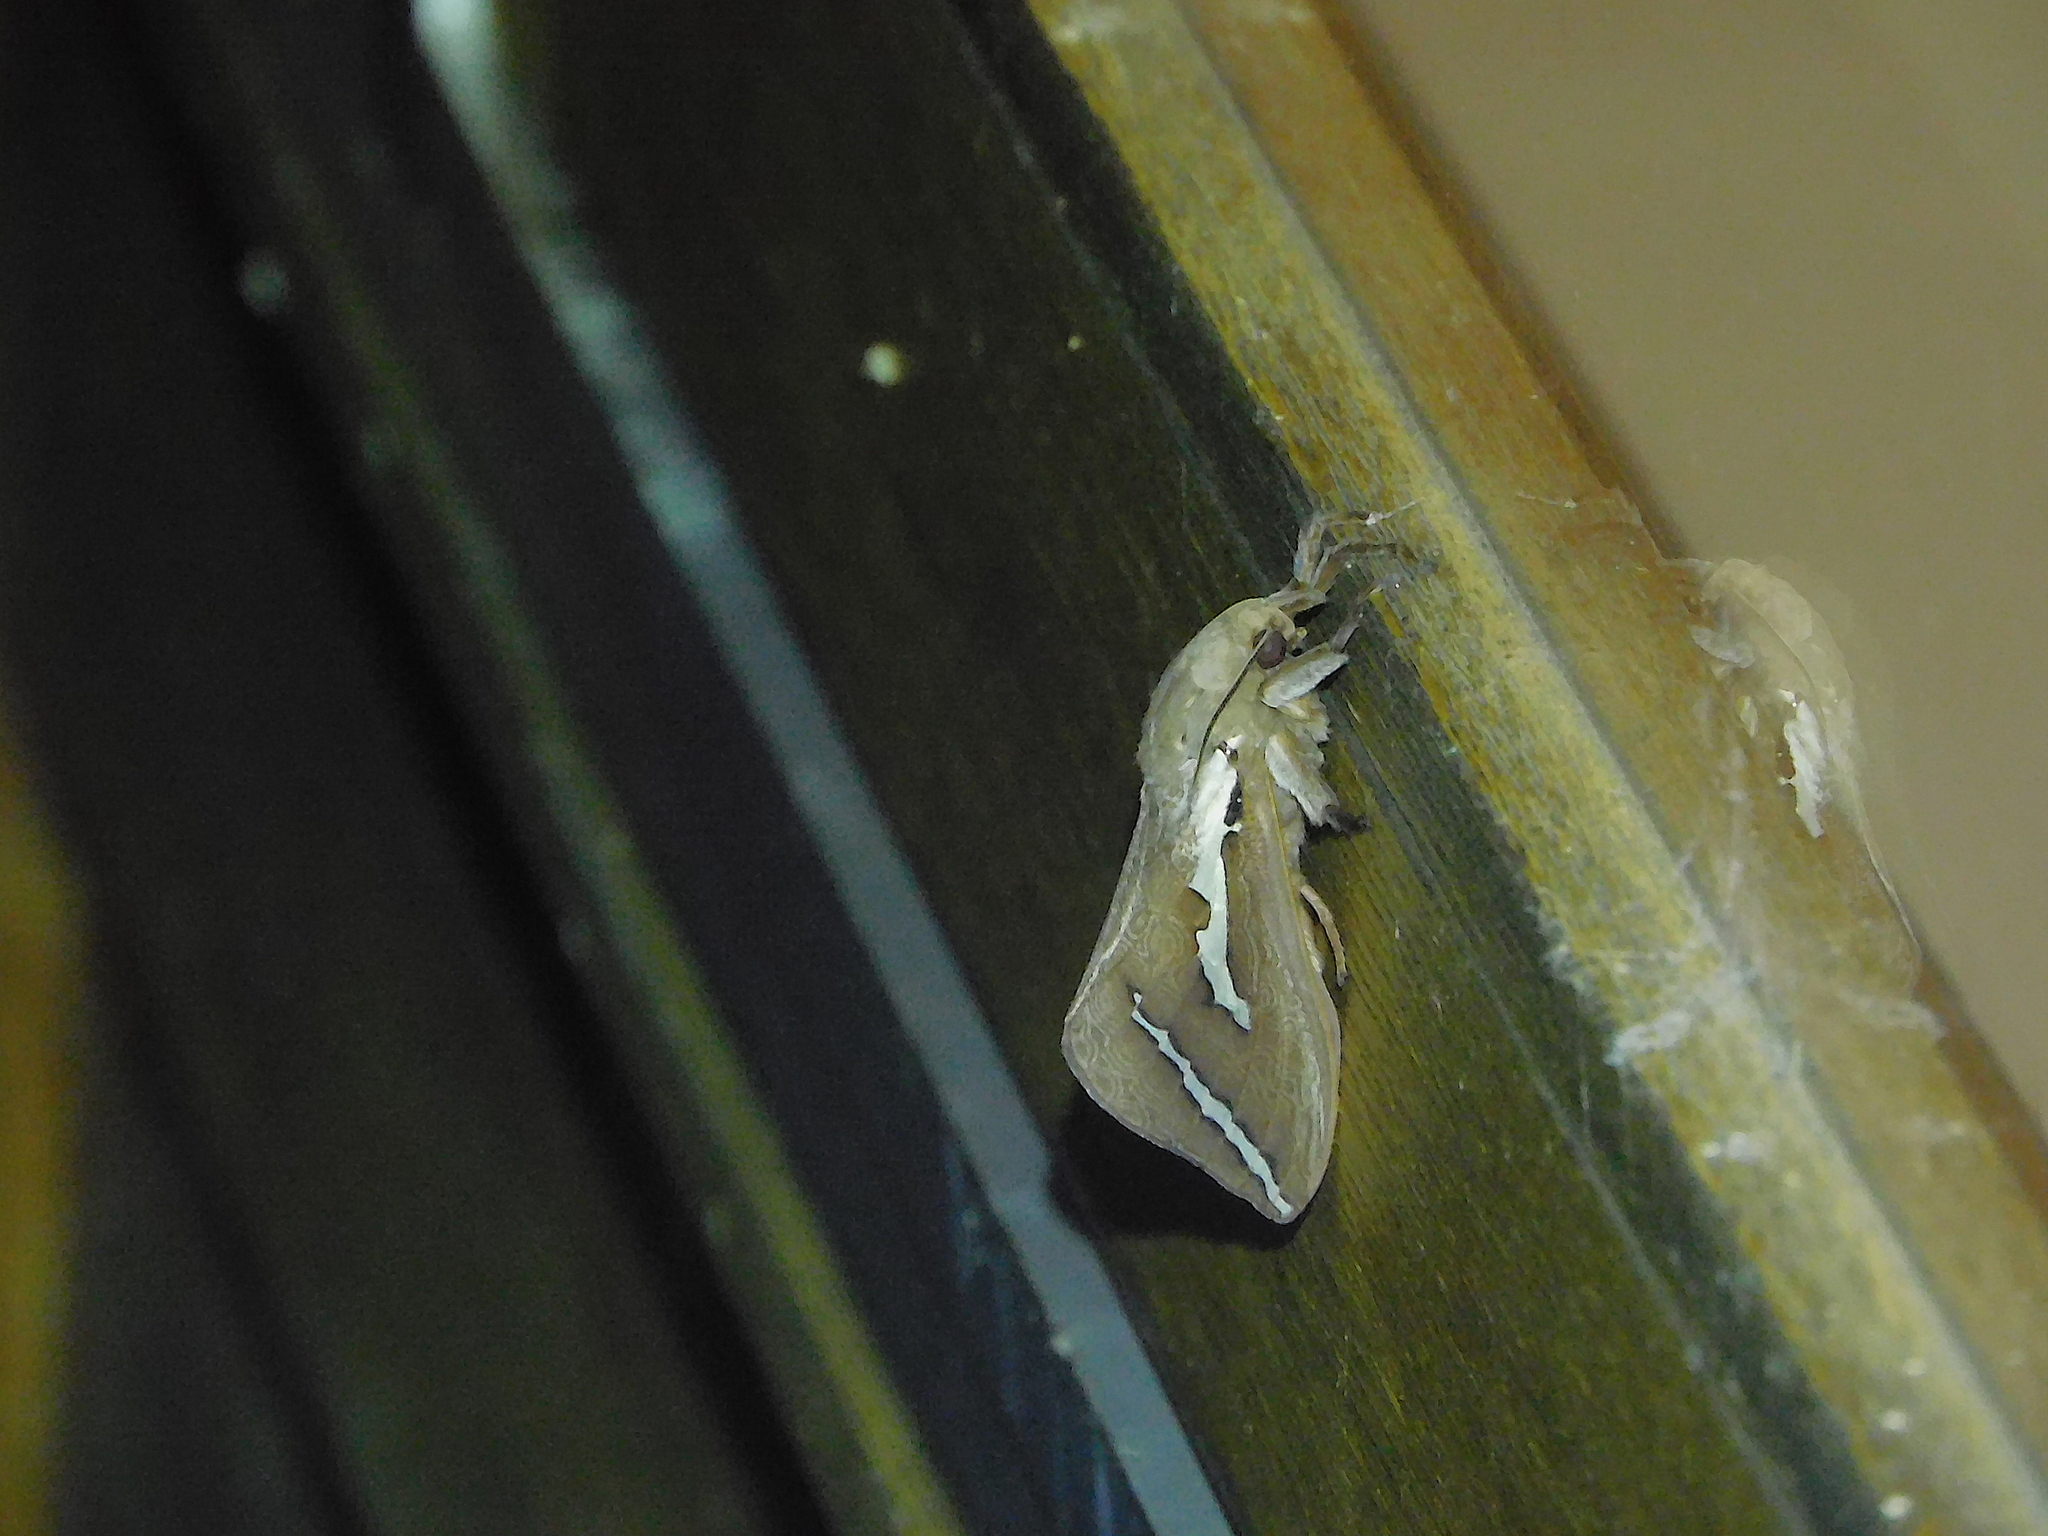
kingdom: Animalia
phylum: Arthropoda
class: Insecta
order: Lepidoptera
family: Hepialidae
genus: Abantiades
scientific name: Abantiades latipennis
